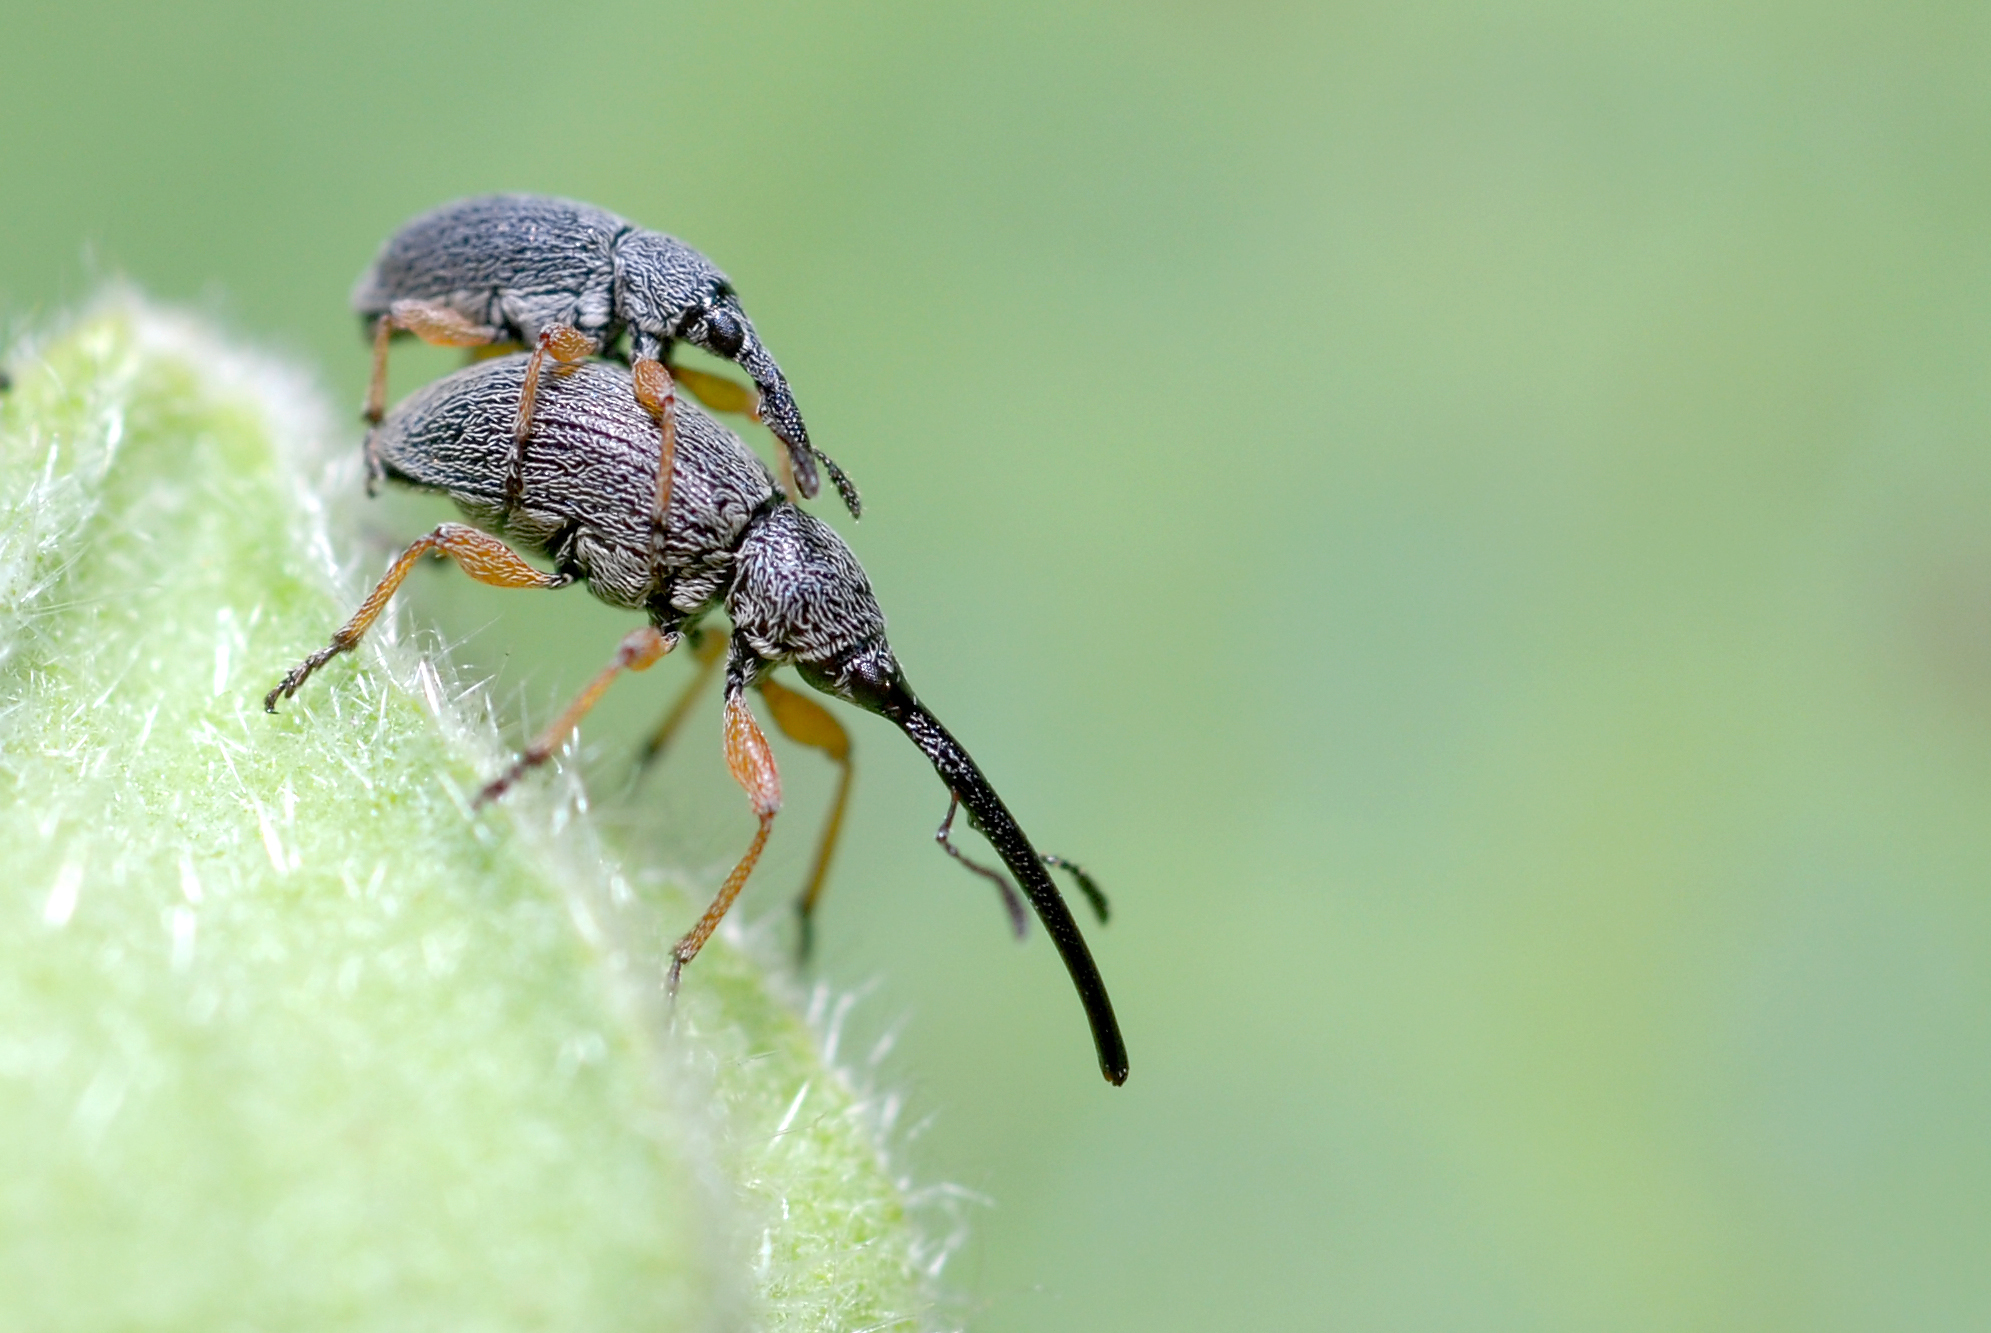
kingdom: Animalia
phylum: Arthropoda
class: Insecta
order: Coleoptera
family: Brentidae
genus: Rhopalapion
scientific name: Rhopalapion longirostre
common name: Hollyhock weevil
